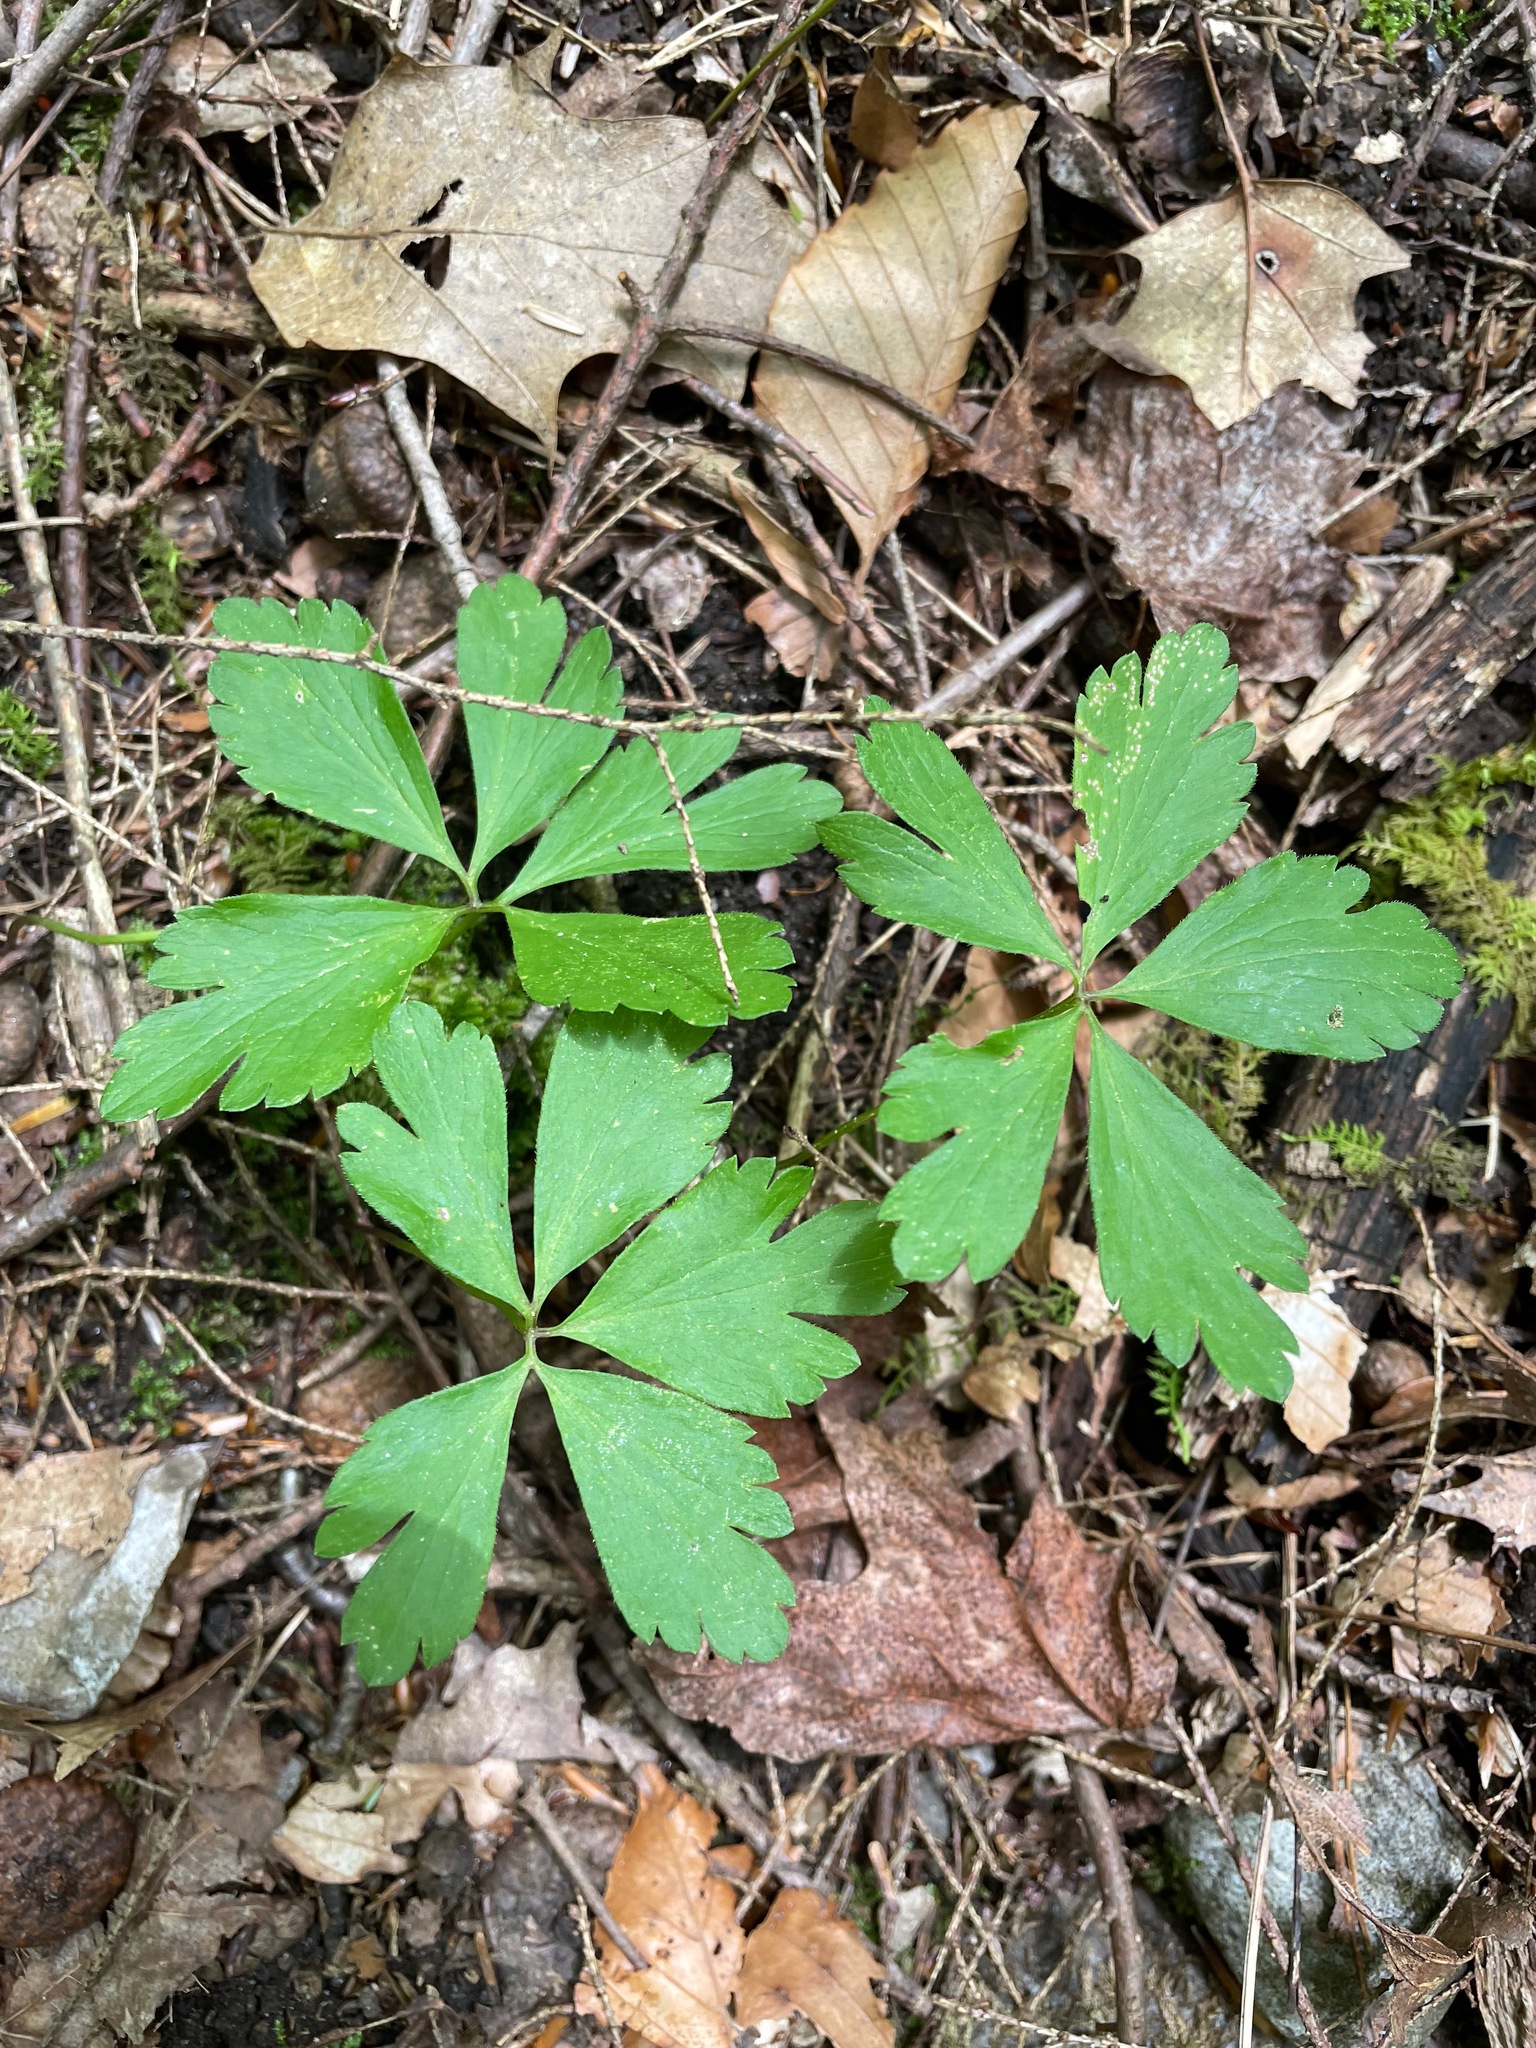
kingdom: Plantae
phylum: Tracheophyta
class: Magnoliopsida
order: Ranunculales
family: Ranunculaceae
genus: Anemone
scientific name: Anemone quinquefolia
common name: Wood anemone
